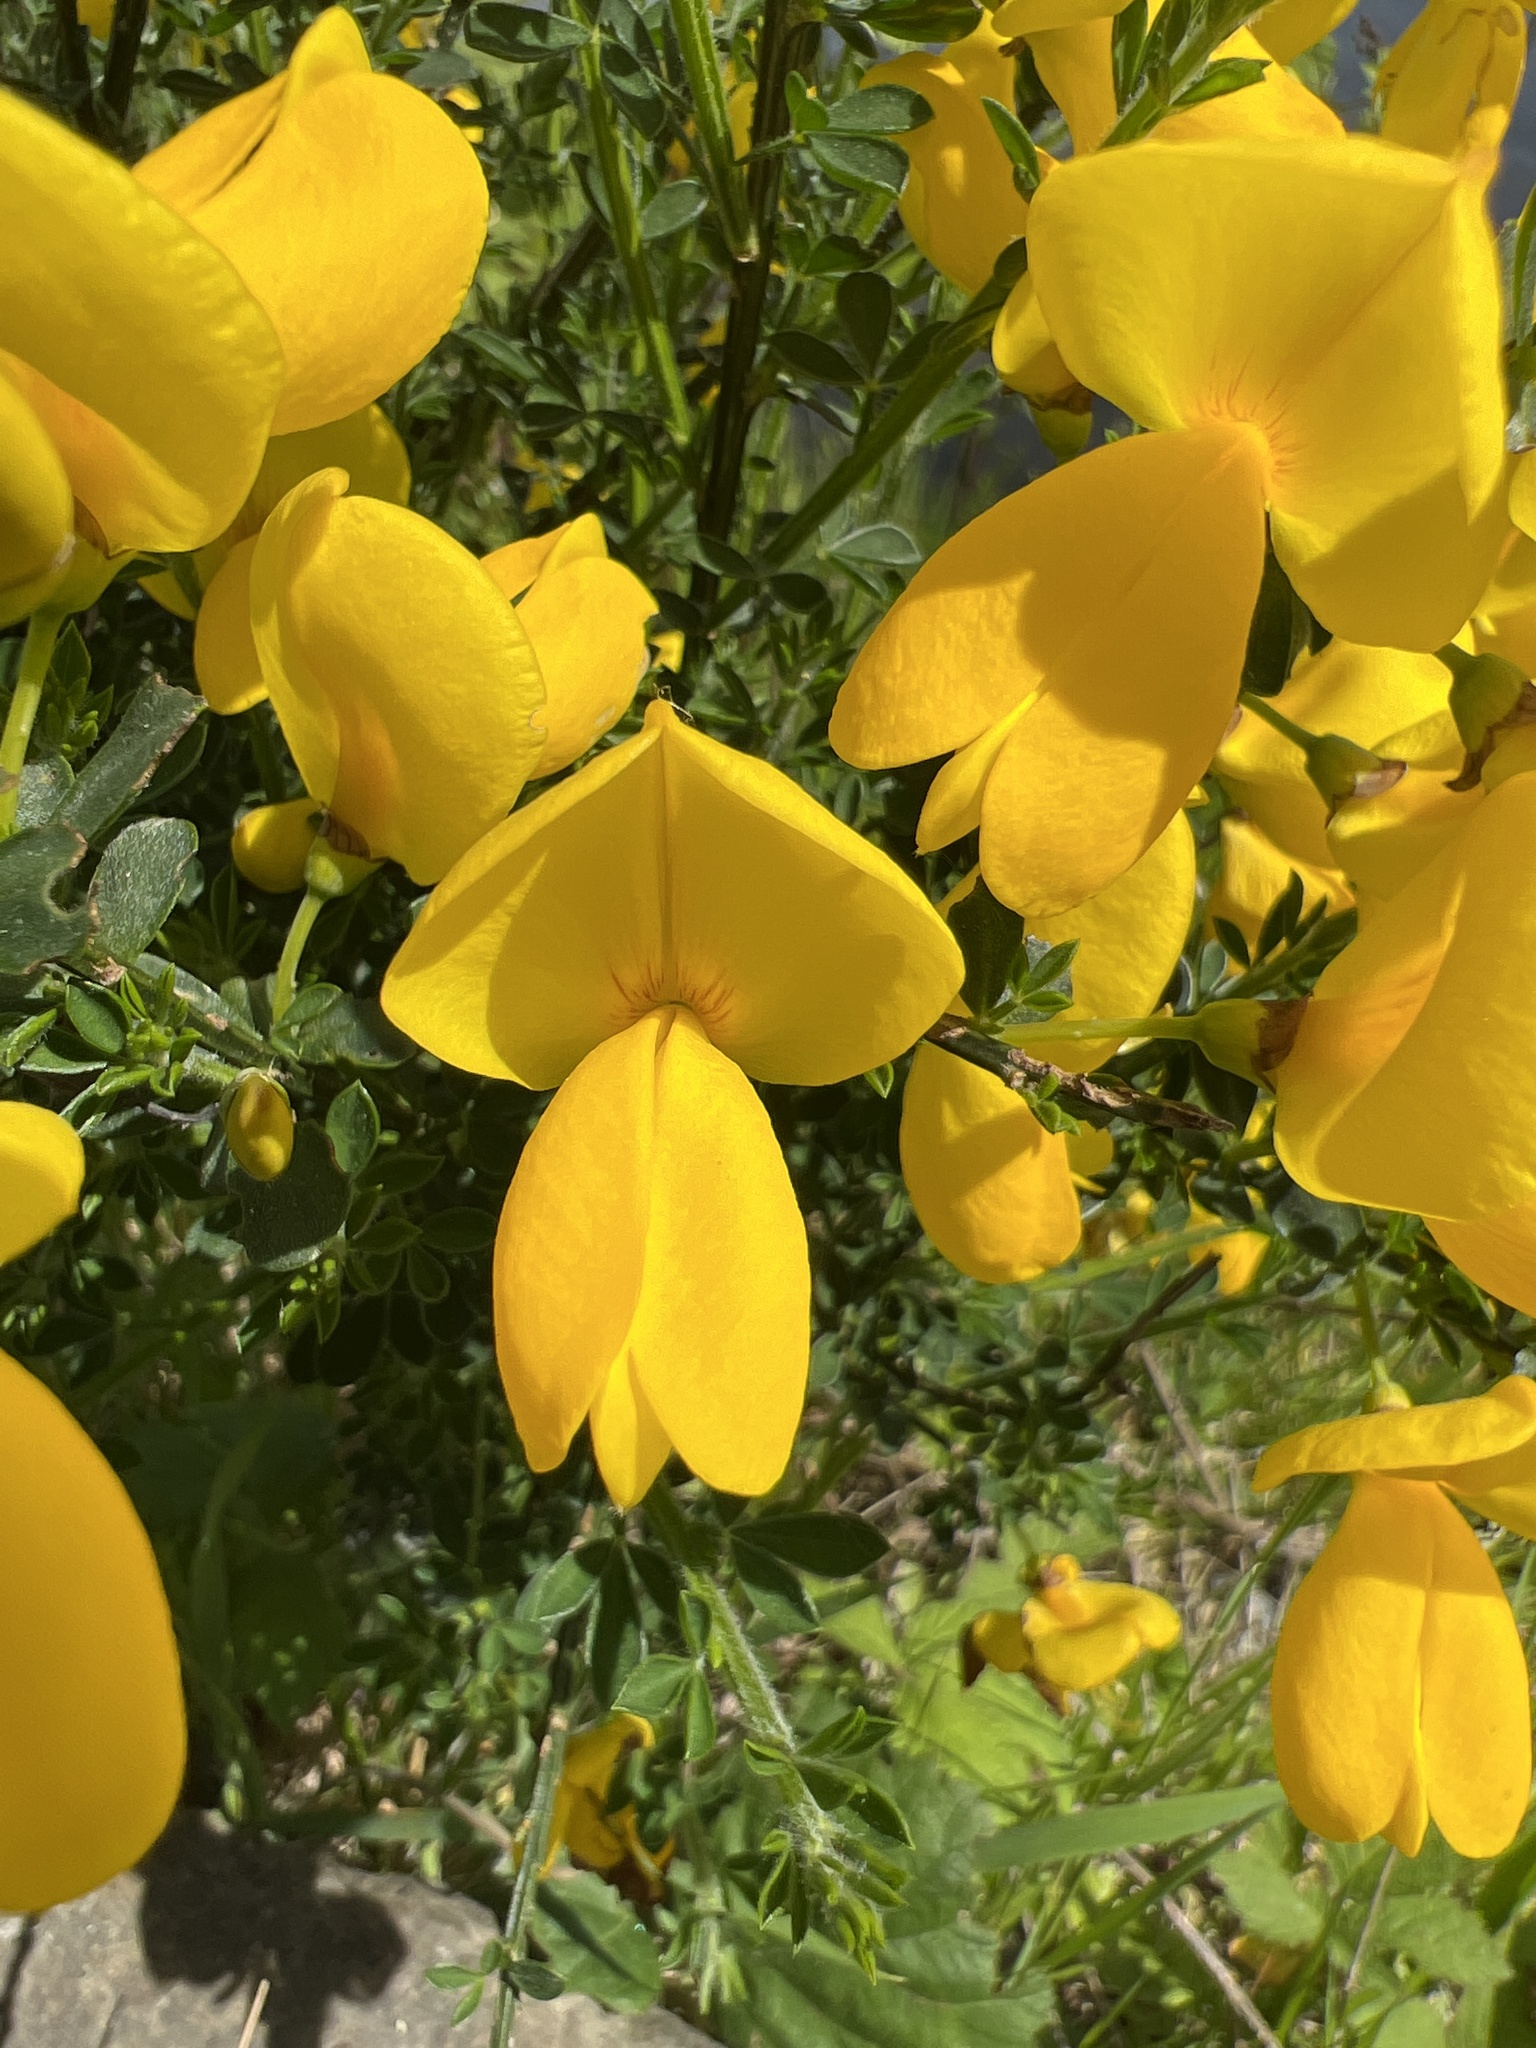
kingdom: Plantae
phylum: Tracheophyta
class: Magnoliopsida
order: Fabales
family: Fabaceae
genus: Cytisus
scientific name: Cytisus scoparius
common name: Scotch broom
